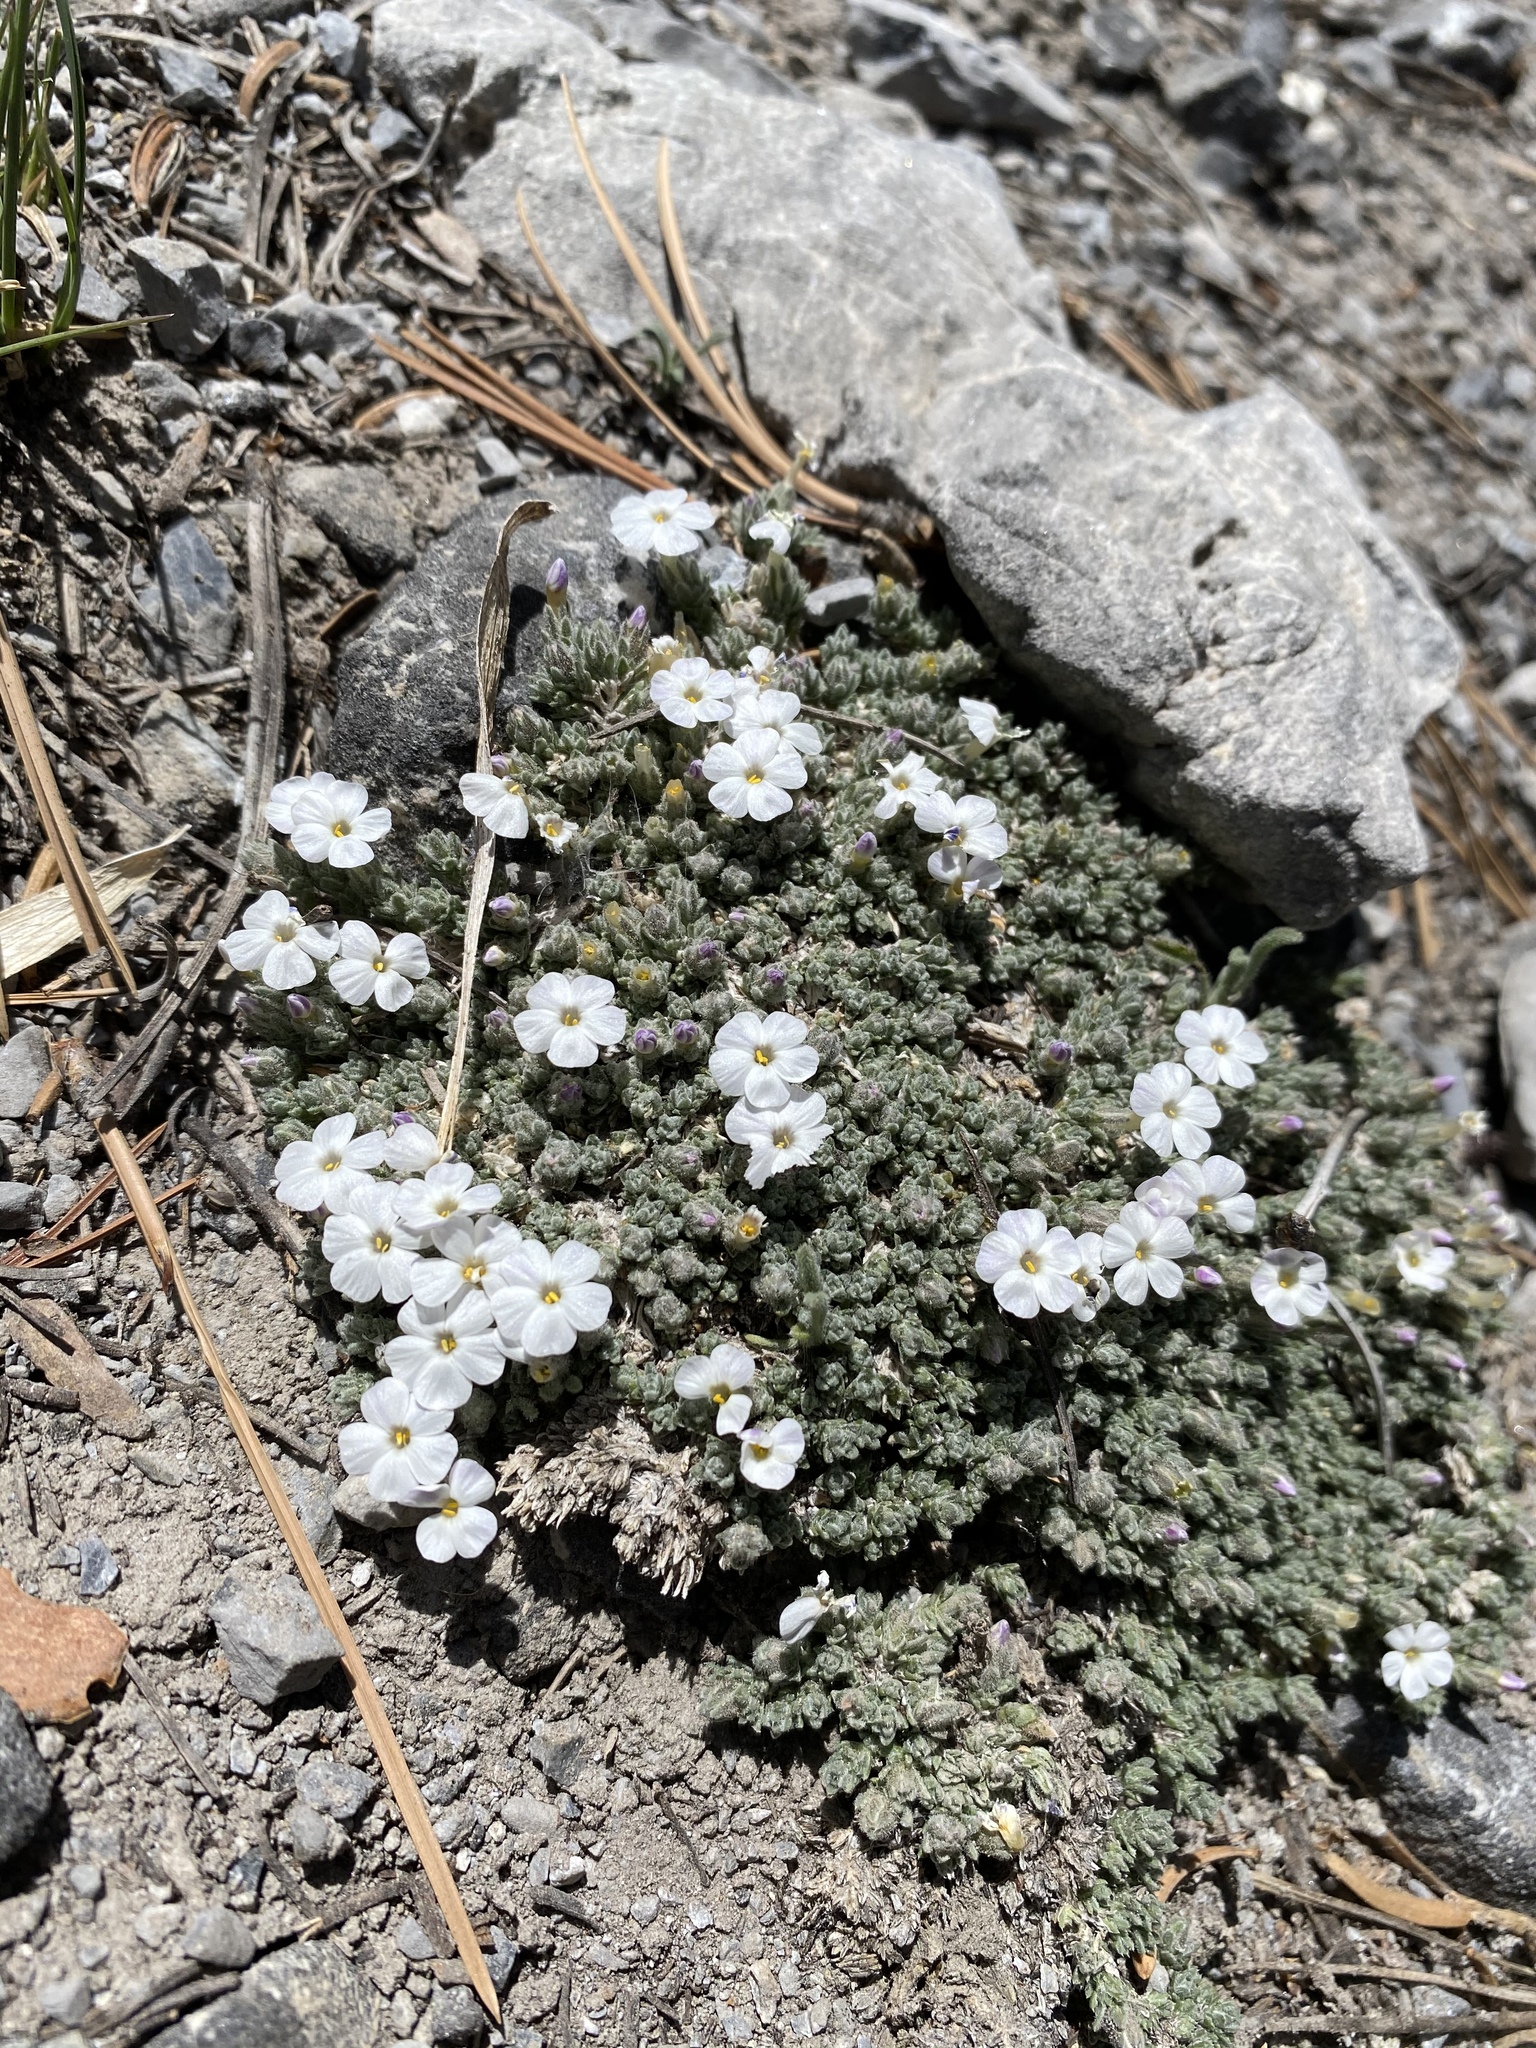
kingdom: Plantae
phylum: Tracheophyta
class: Magnoliopsida
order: Ericales
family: Polemoniaceae
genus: Phlox
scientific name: Phlox condensata
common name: Compact phlox
